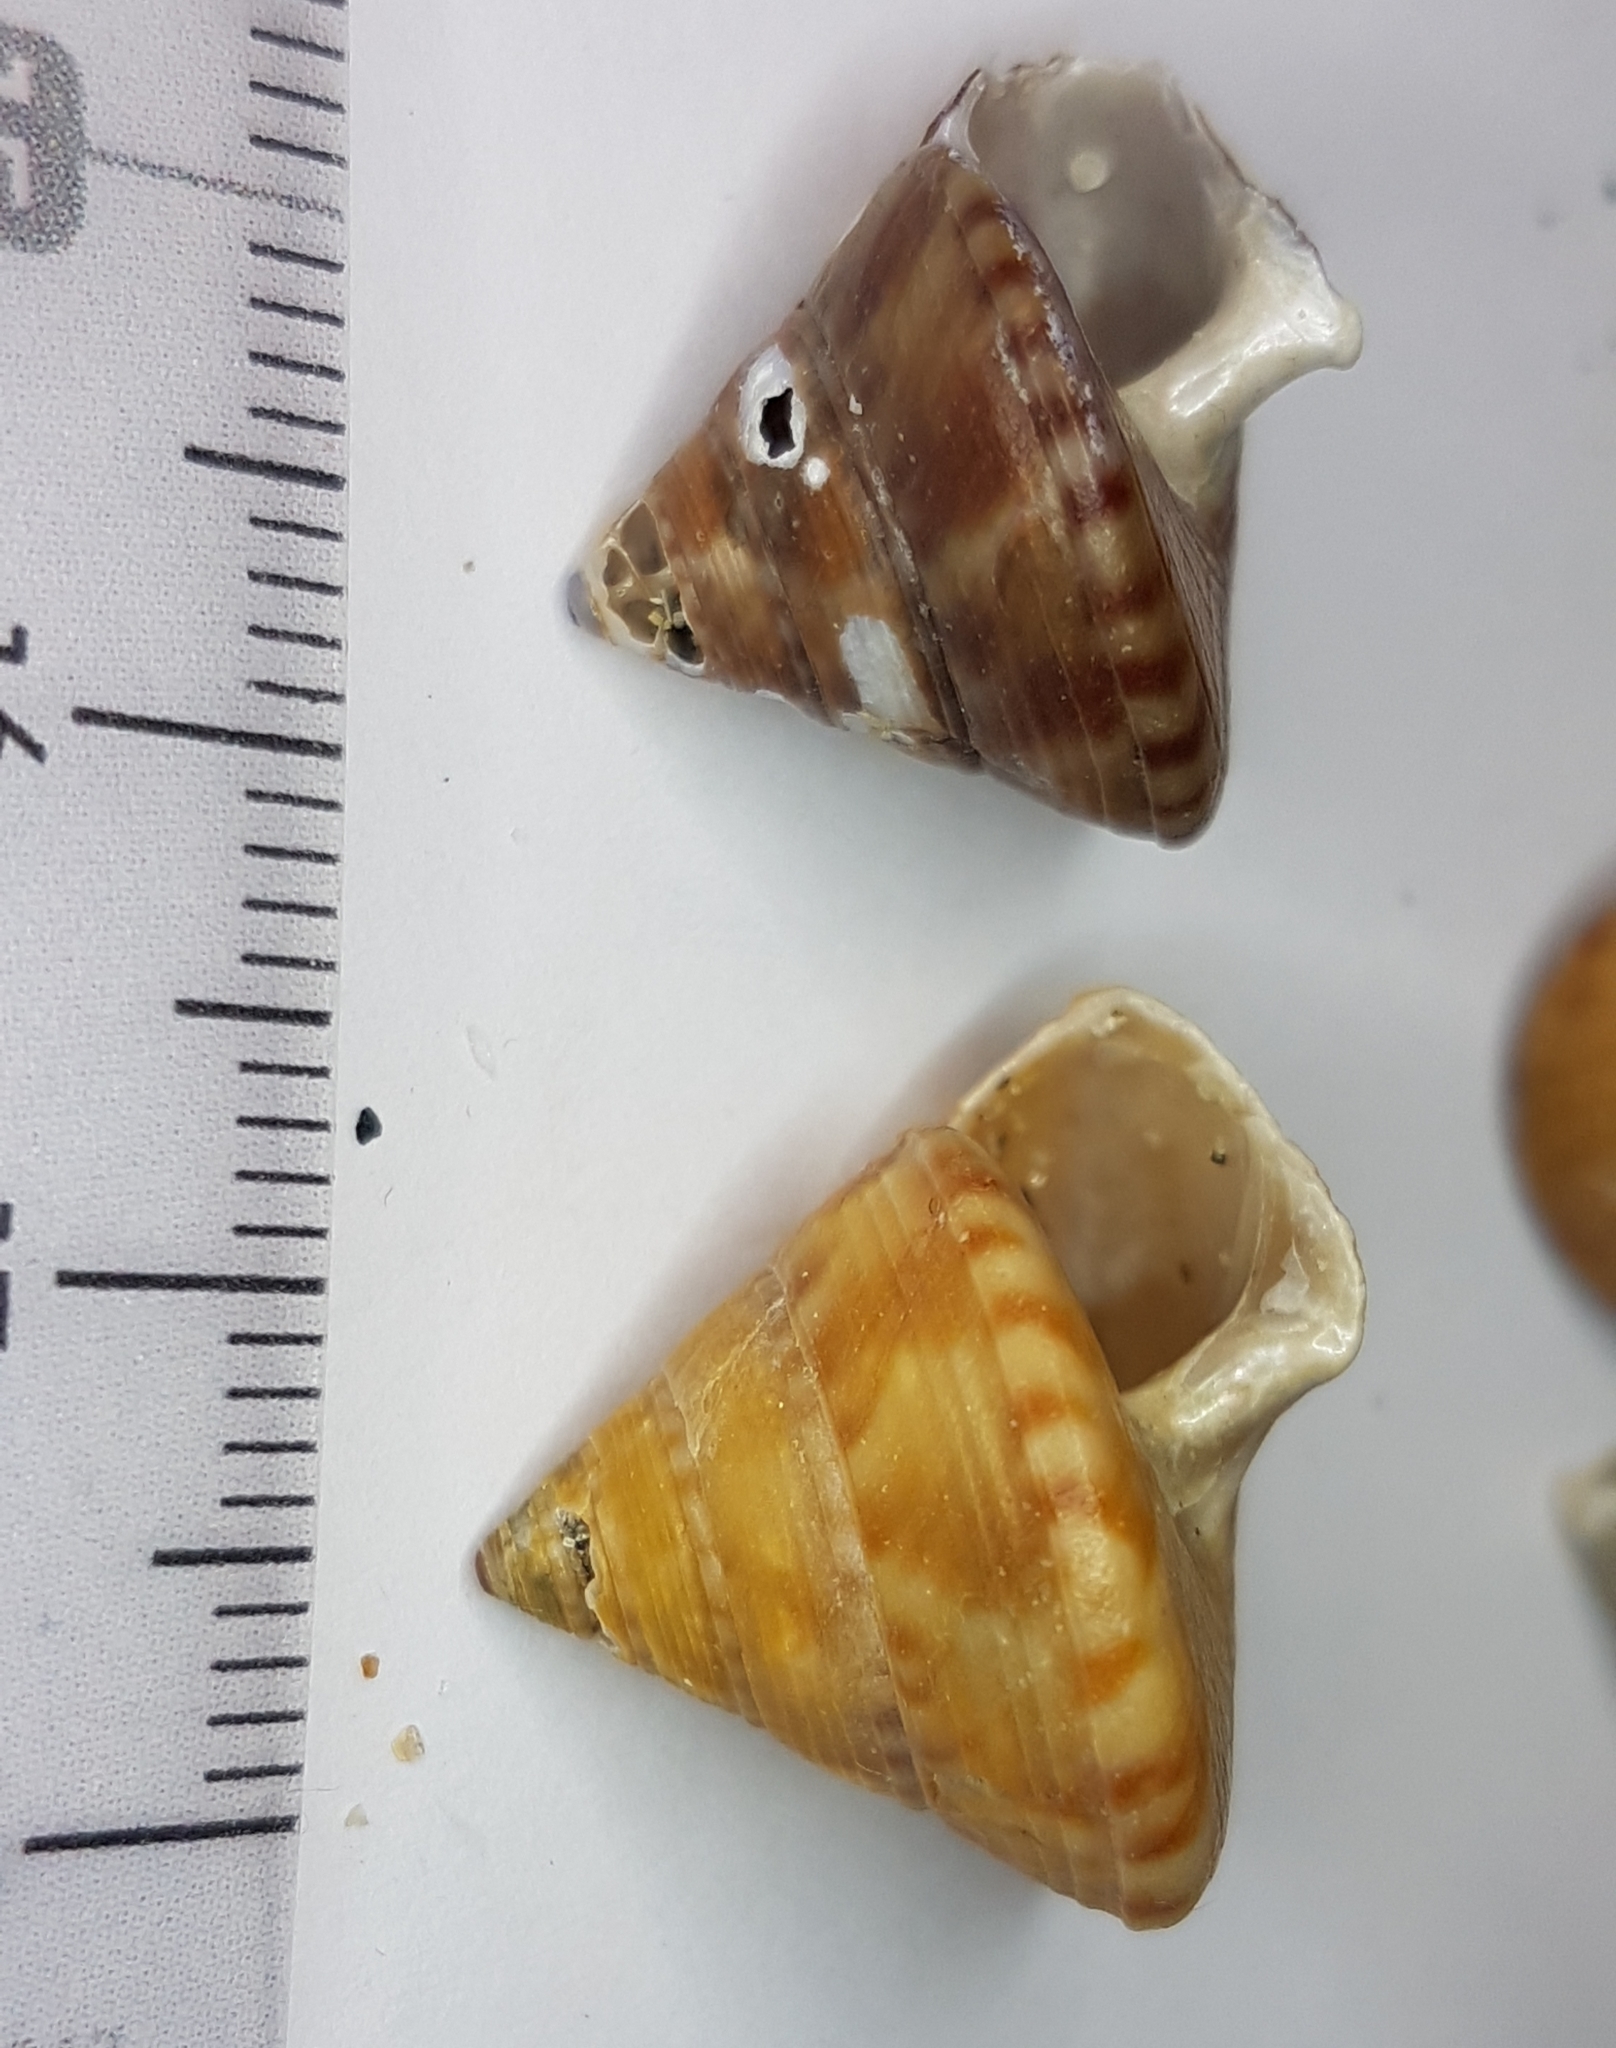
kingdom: Animalia
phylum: Mollusca
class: Gastropoda
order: Trochida
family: Calliostomatidae
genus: Calliostoma
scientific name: Calliostoma zizyphinum
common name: Painted top shell
